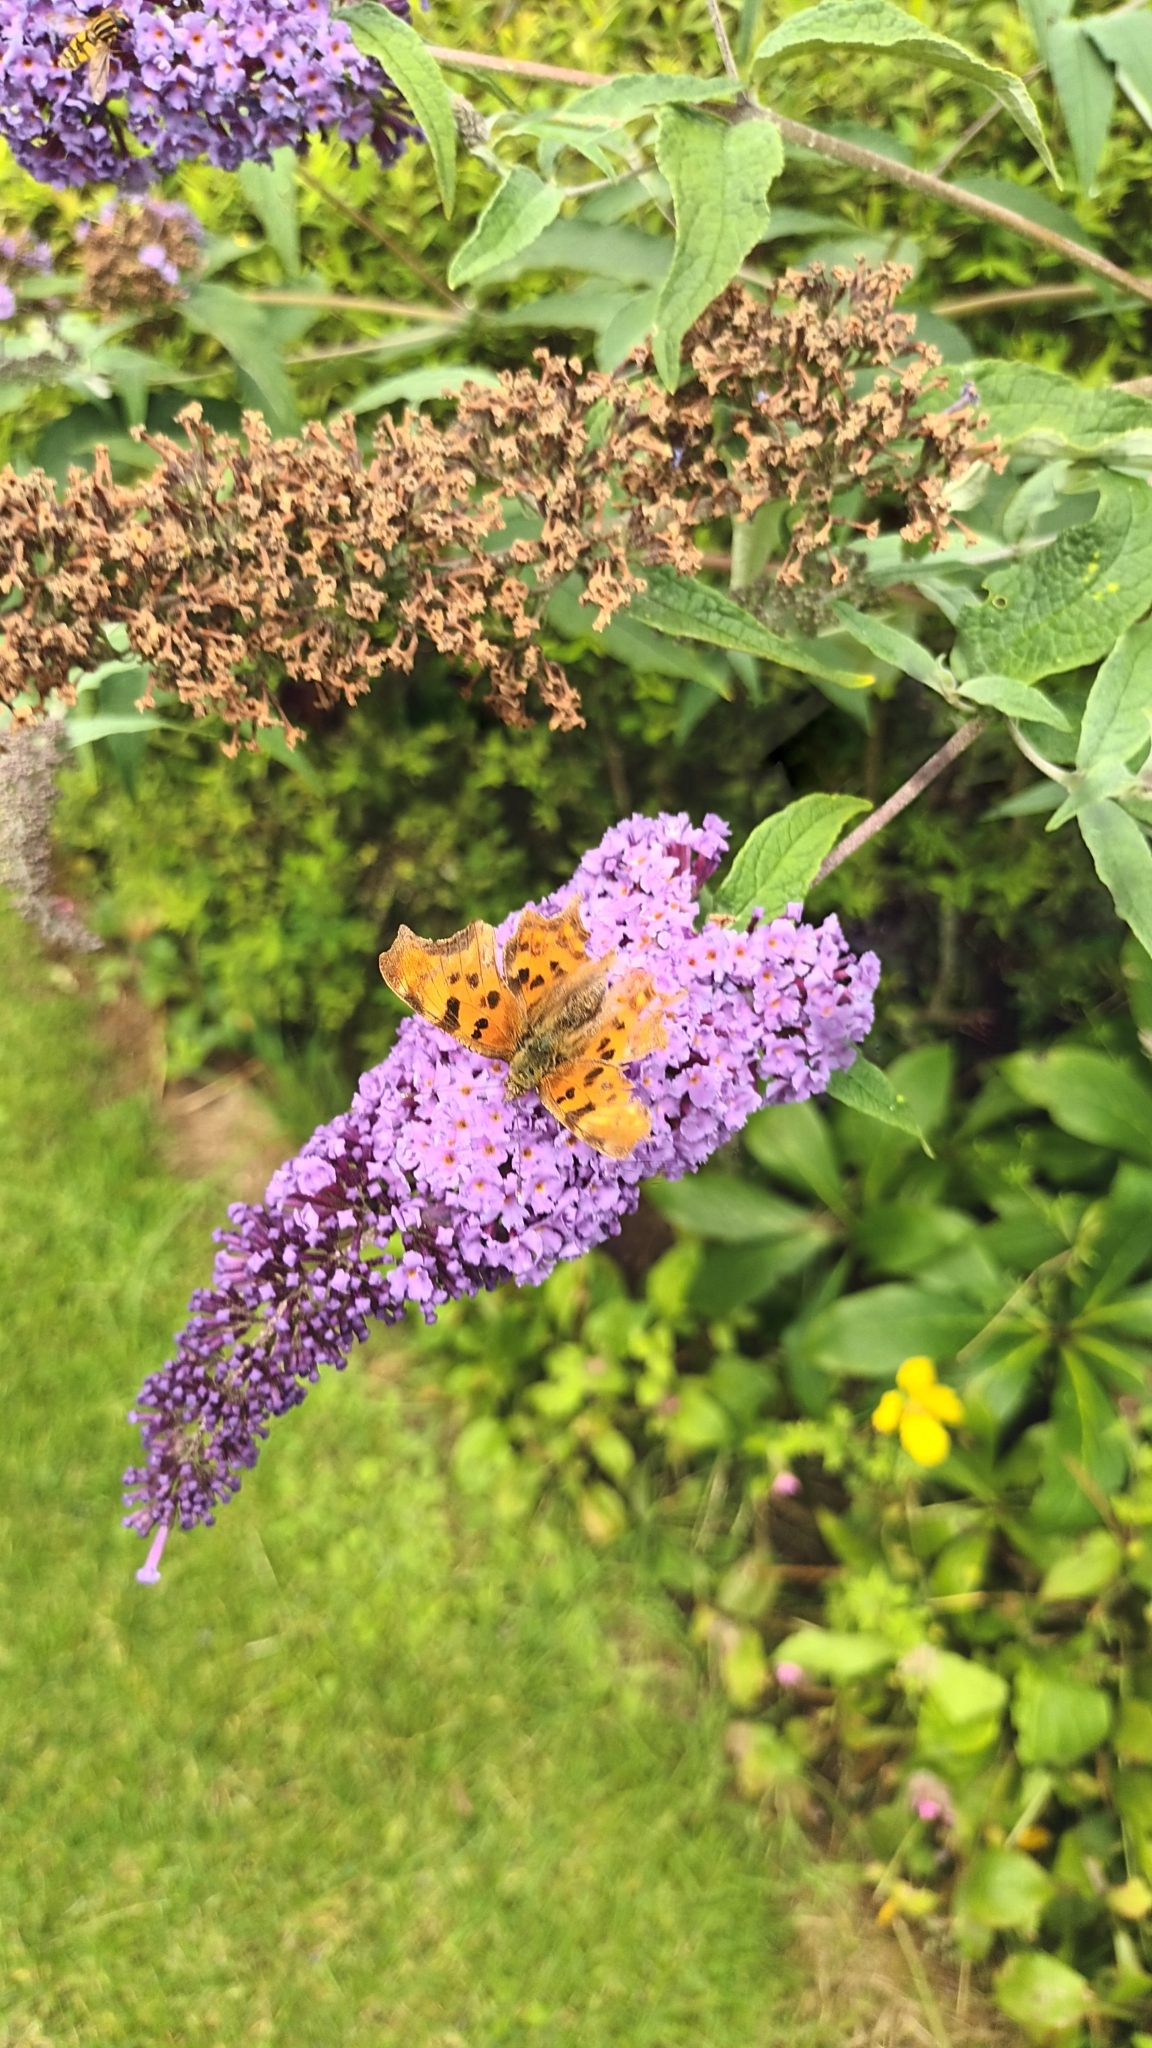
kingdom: Animalia
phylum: Arthropoda
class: Insecta
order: Lepidoptera
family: Nymphalidae
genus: Polygonia
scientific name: Polygonia c-album
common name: Comma
